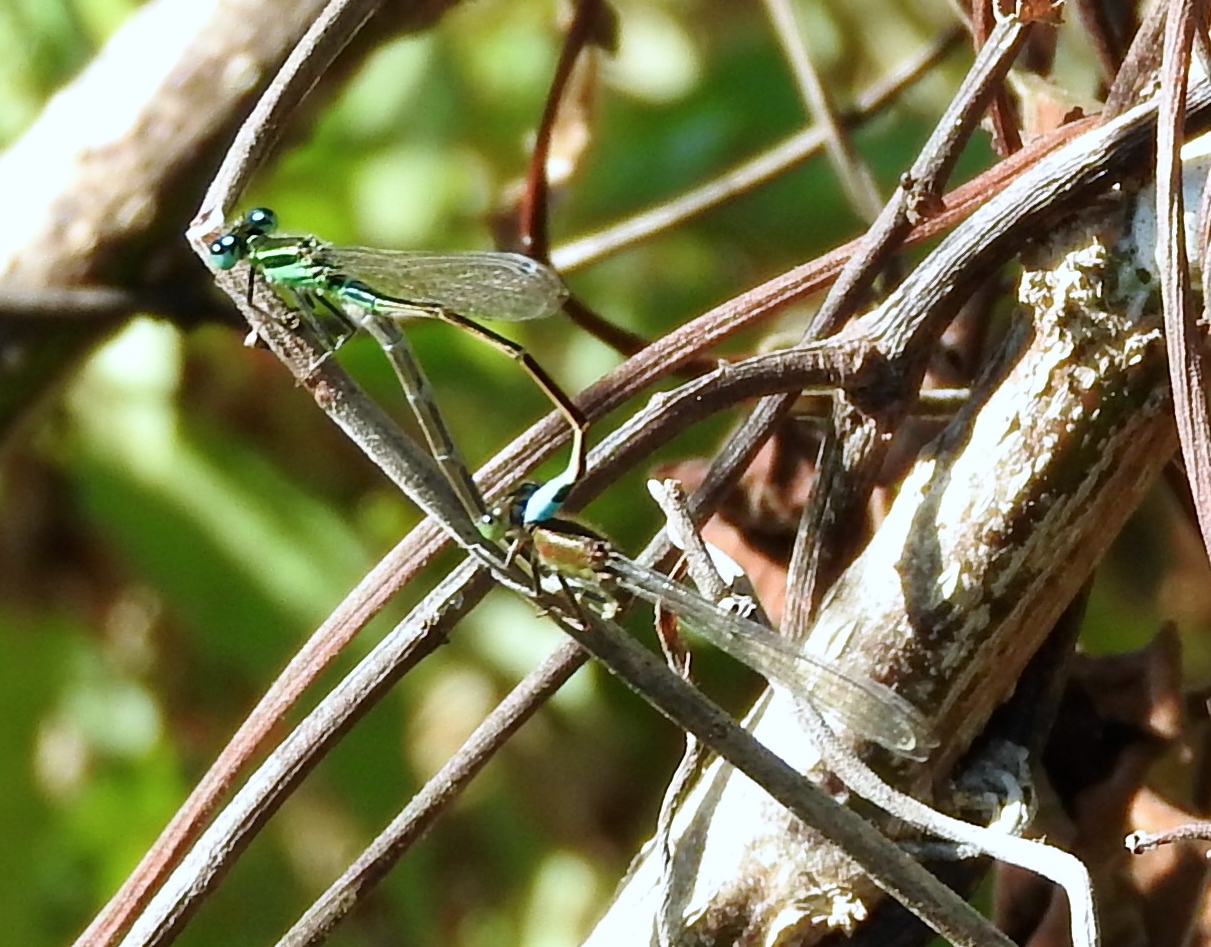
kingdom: Animalia
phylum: Arthropoda
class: Insecta
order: Odonata
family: Coenagrionidae
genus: Ischnura
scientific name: Ischnura ramburii
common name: Rambur's forktail
